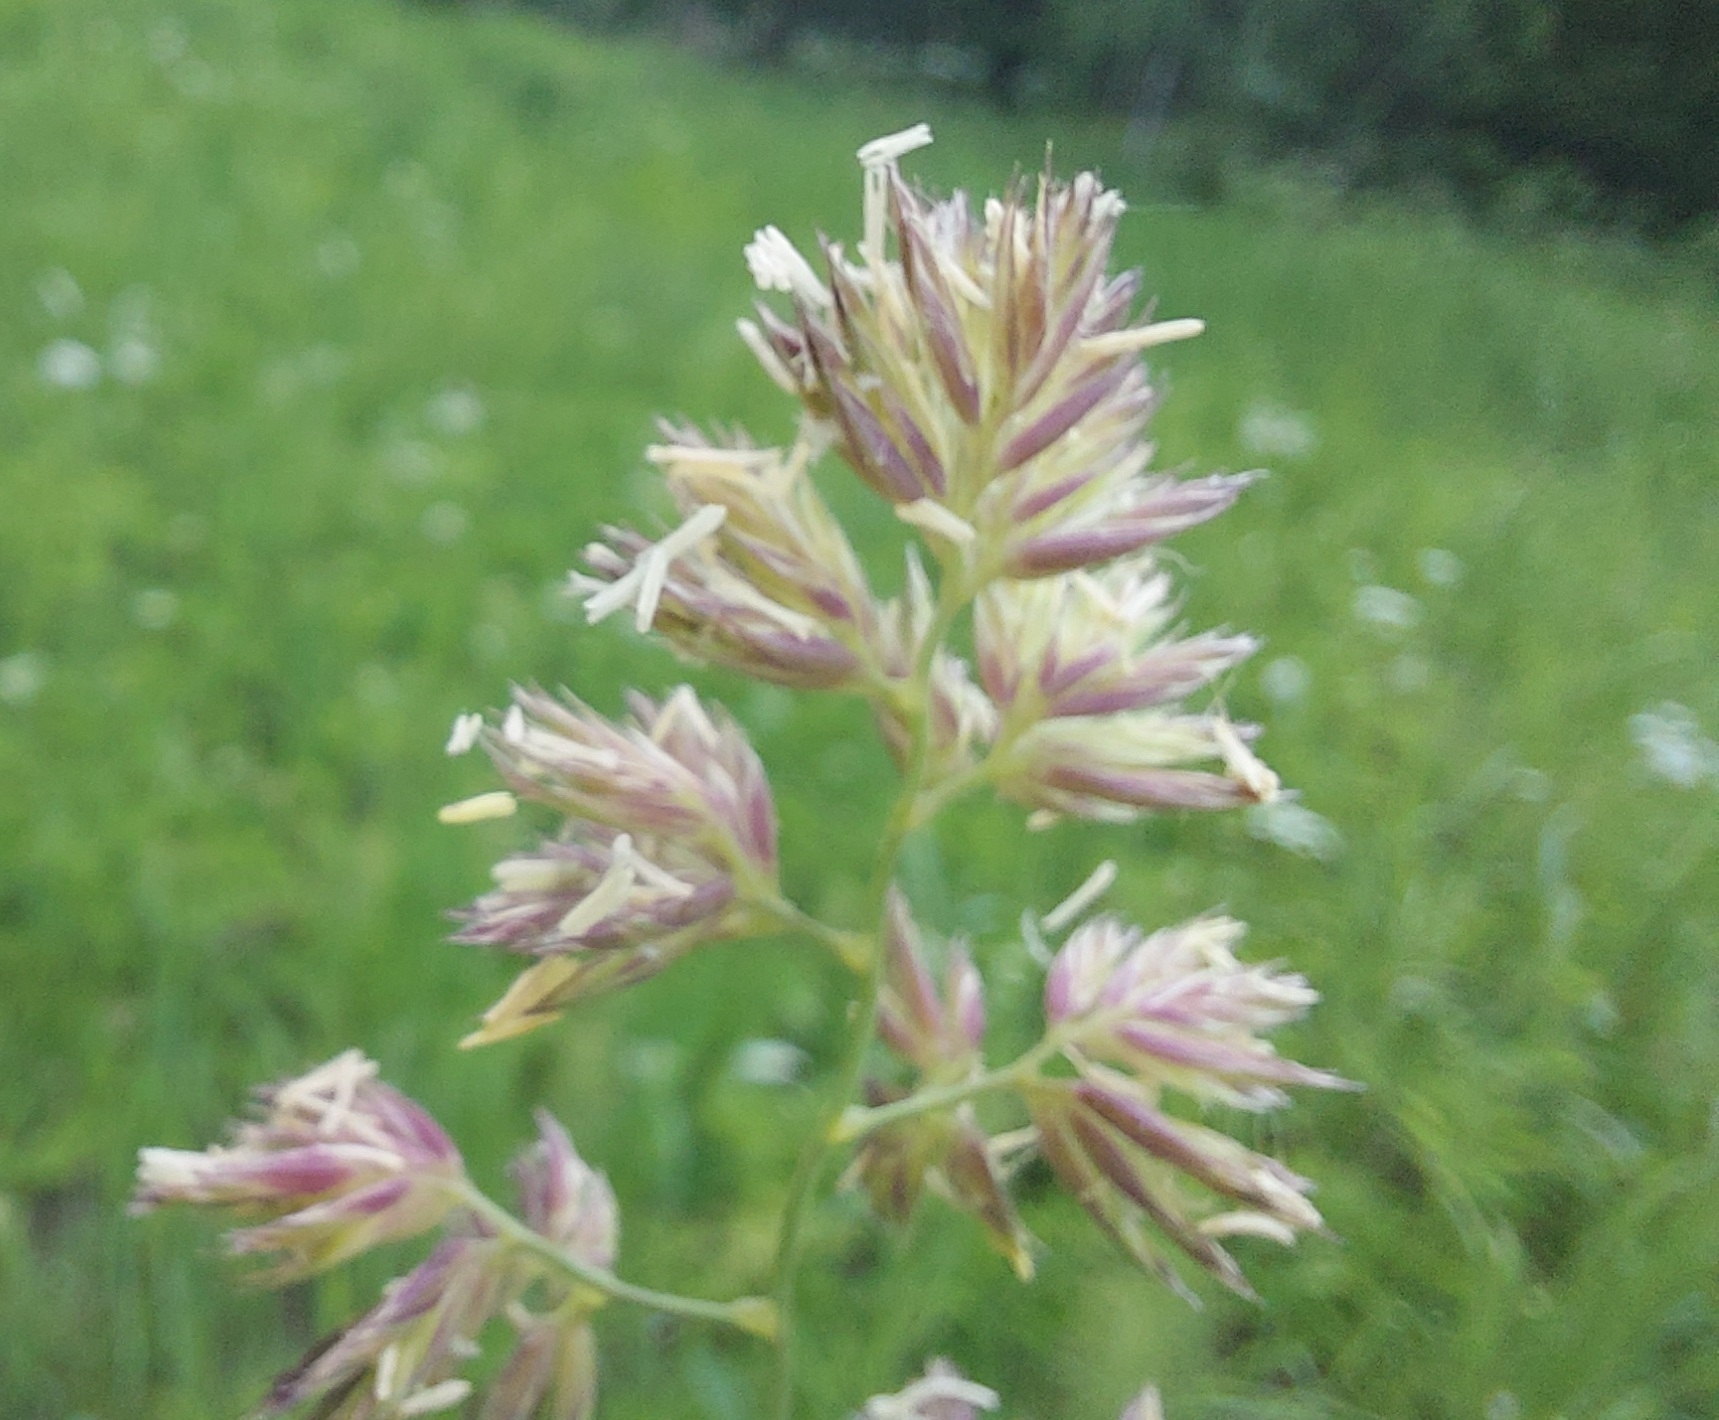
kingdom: Plantae
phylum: Tracheophyta
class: Liliopsida
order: Poales
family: Poaceae
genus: Dactylis
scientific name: Dactylis glomerata
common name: Orchardgrass
